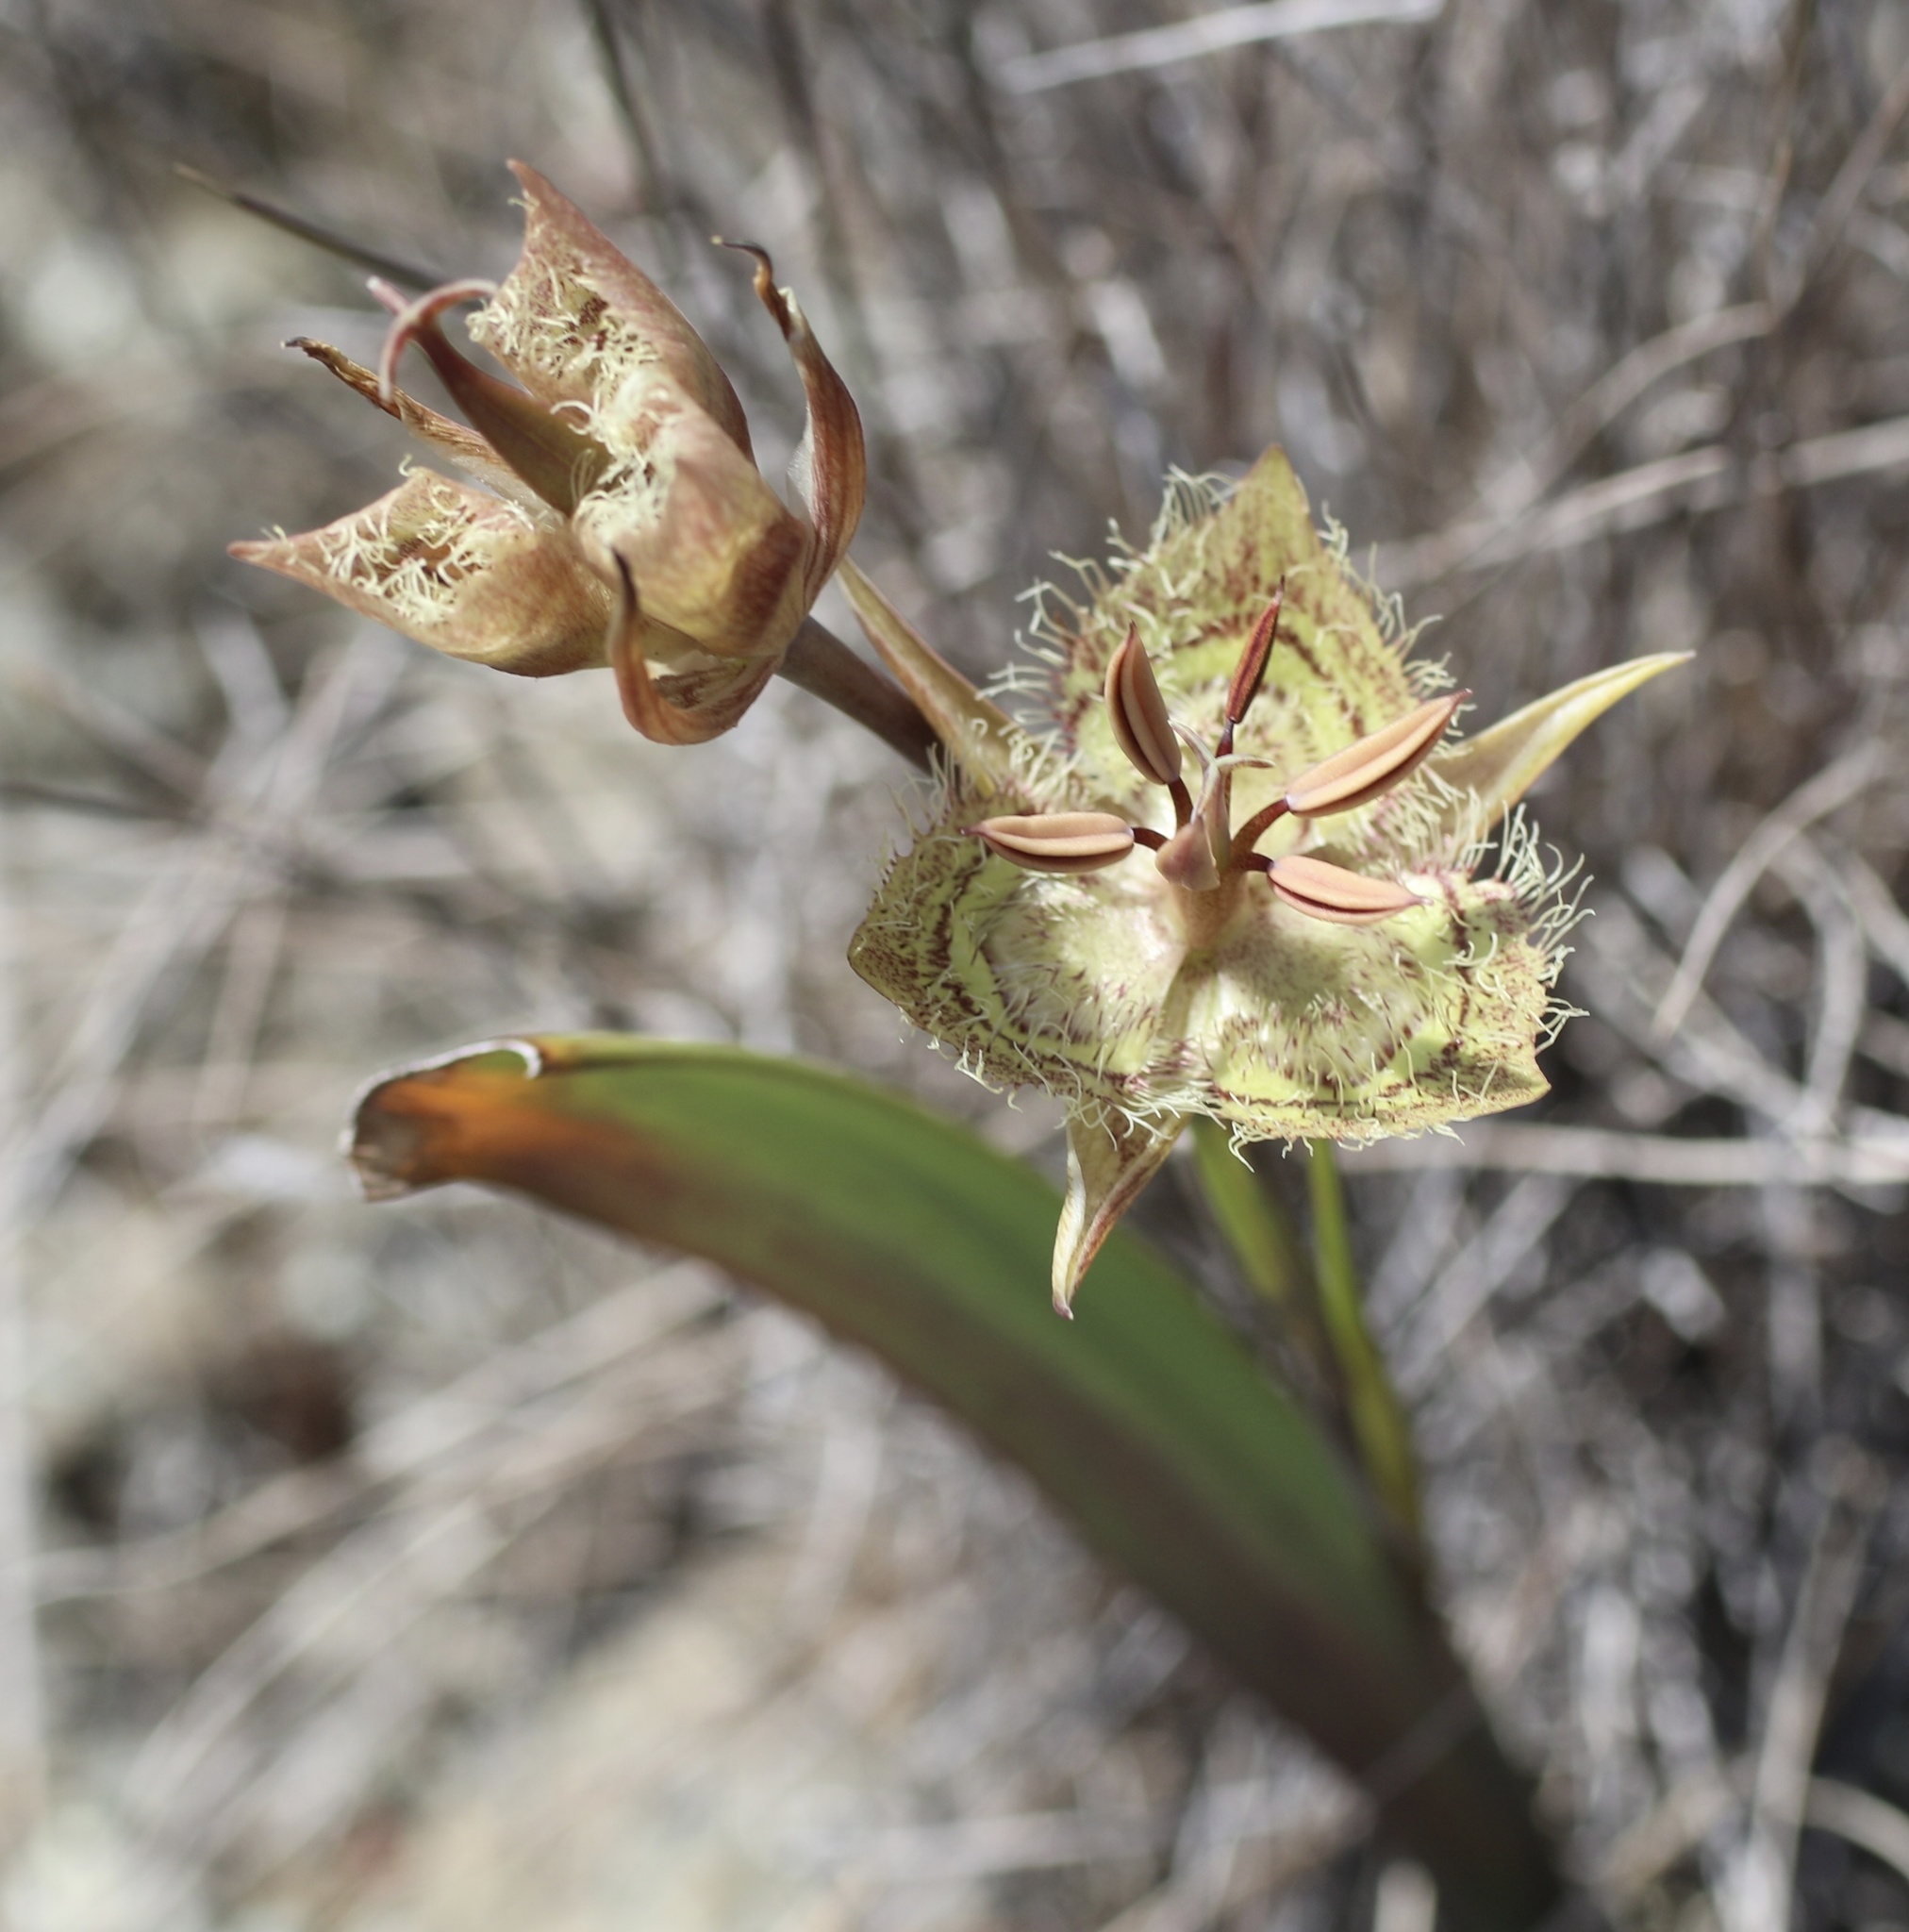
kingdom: Plantae
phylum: Tracheophyta
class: Liliopsida
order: Liliales
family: Liliaceae
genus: Calochortus
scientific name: Calochortus tiburonensis
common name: Tiburon mariposa-lily
